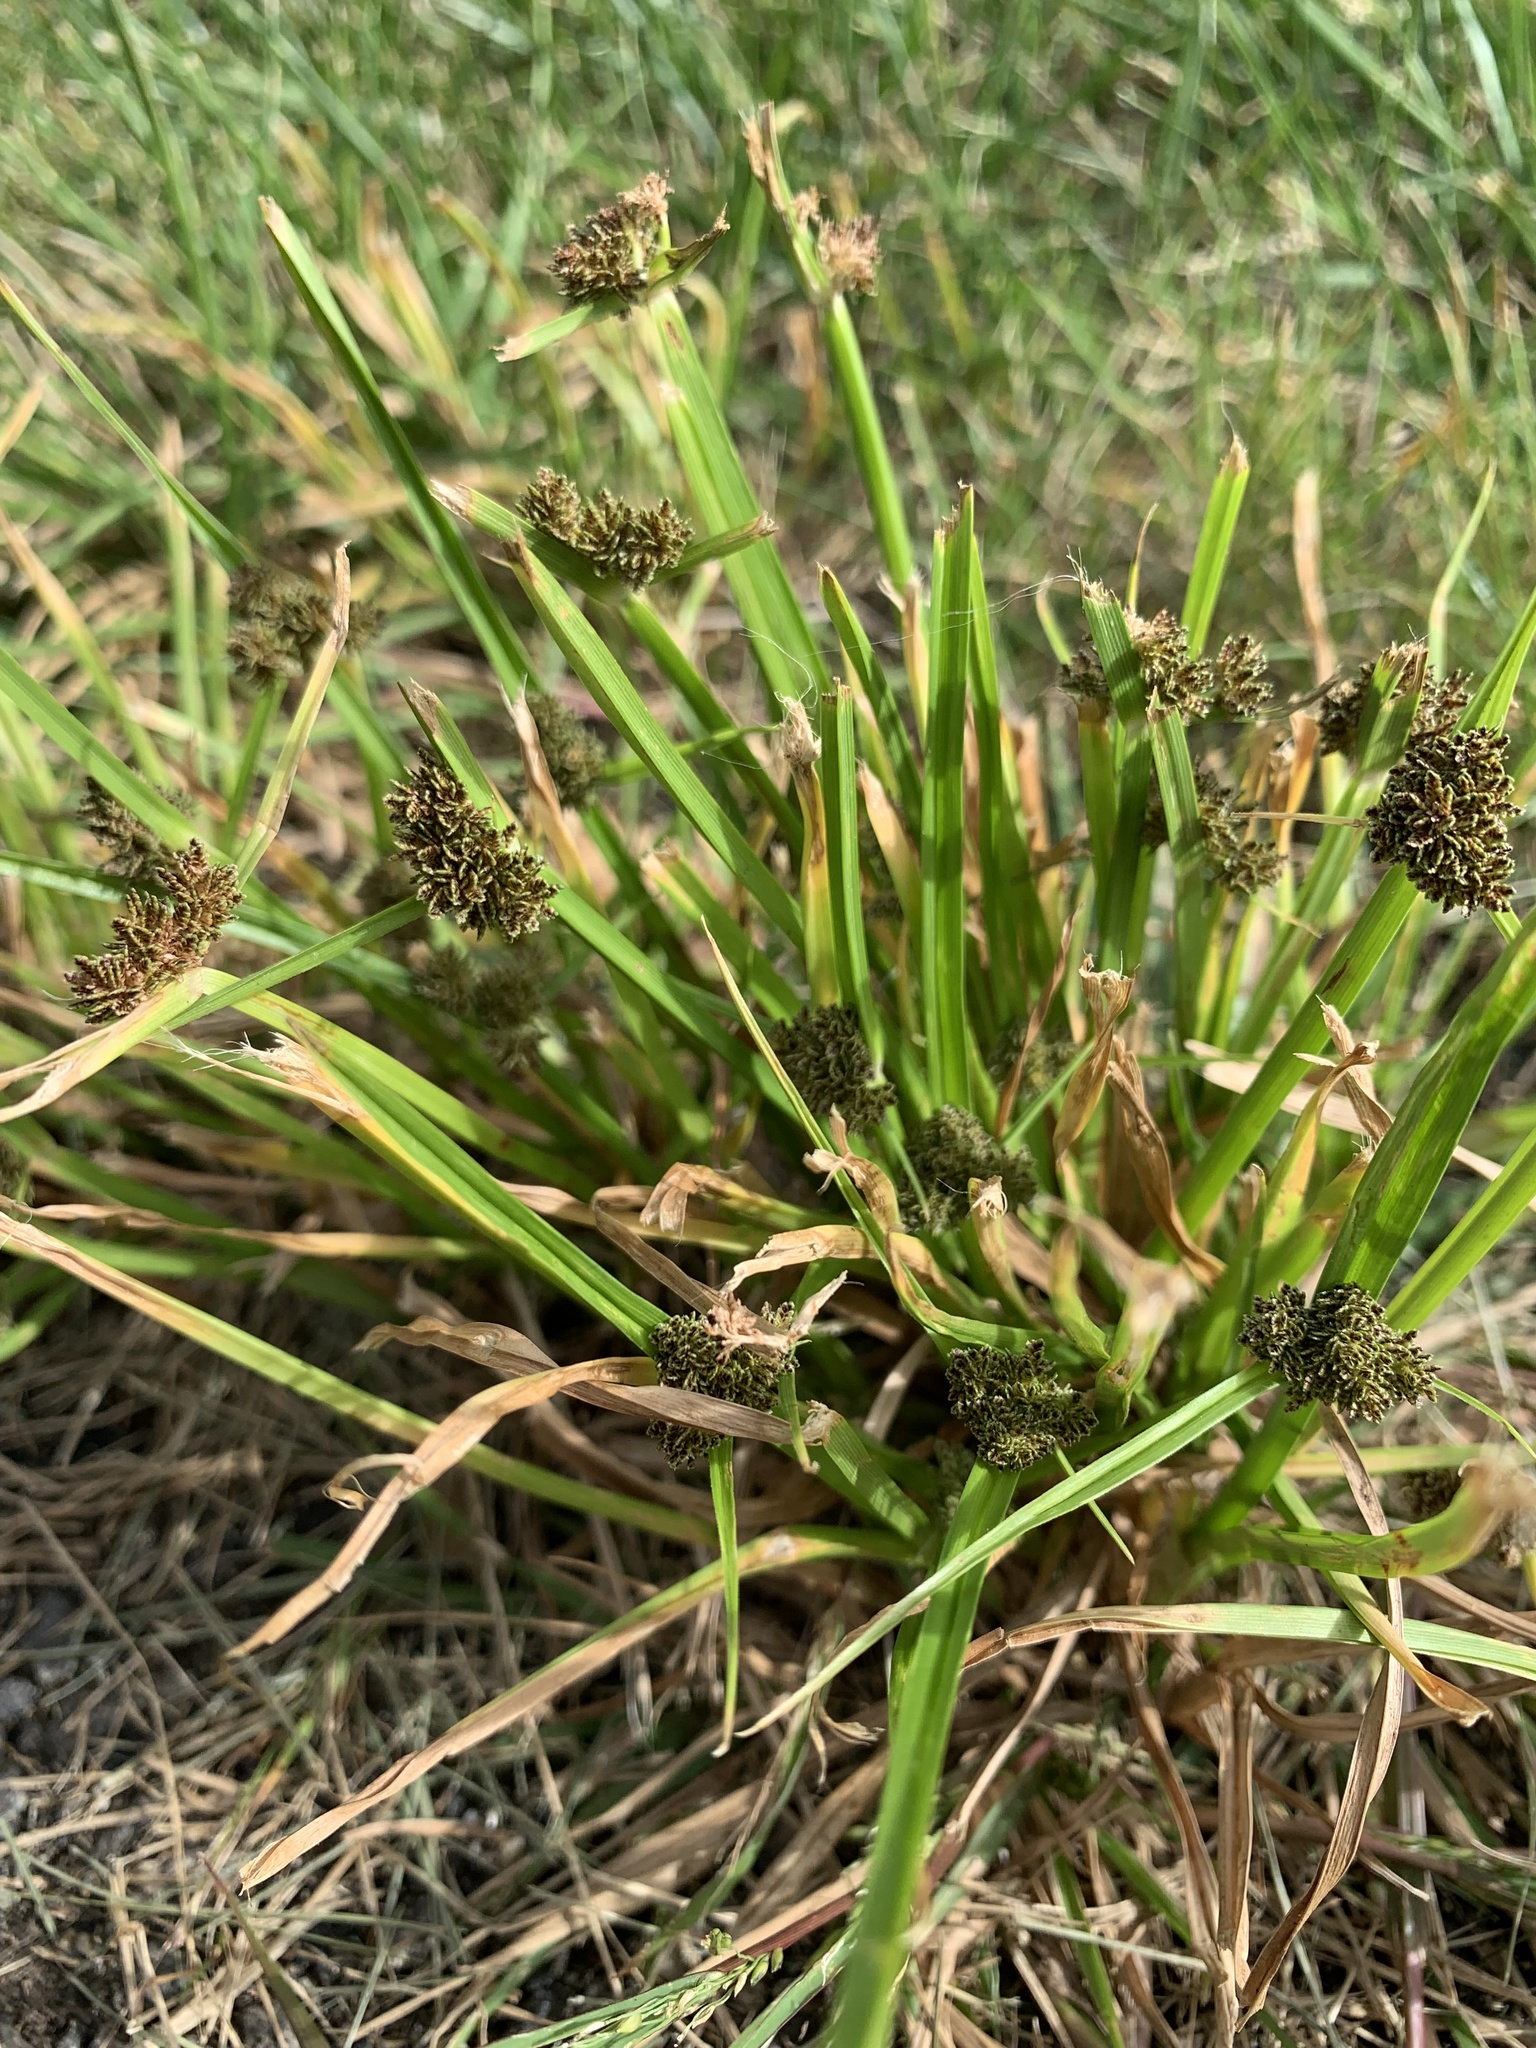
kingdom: Plantae
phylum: Tracheophyta
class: Liliopsida
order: Poales
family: Cyperaceae
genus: Cyperus
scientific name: Cyperus difformis
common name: Variable flatsedge
